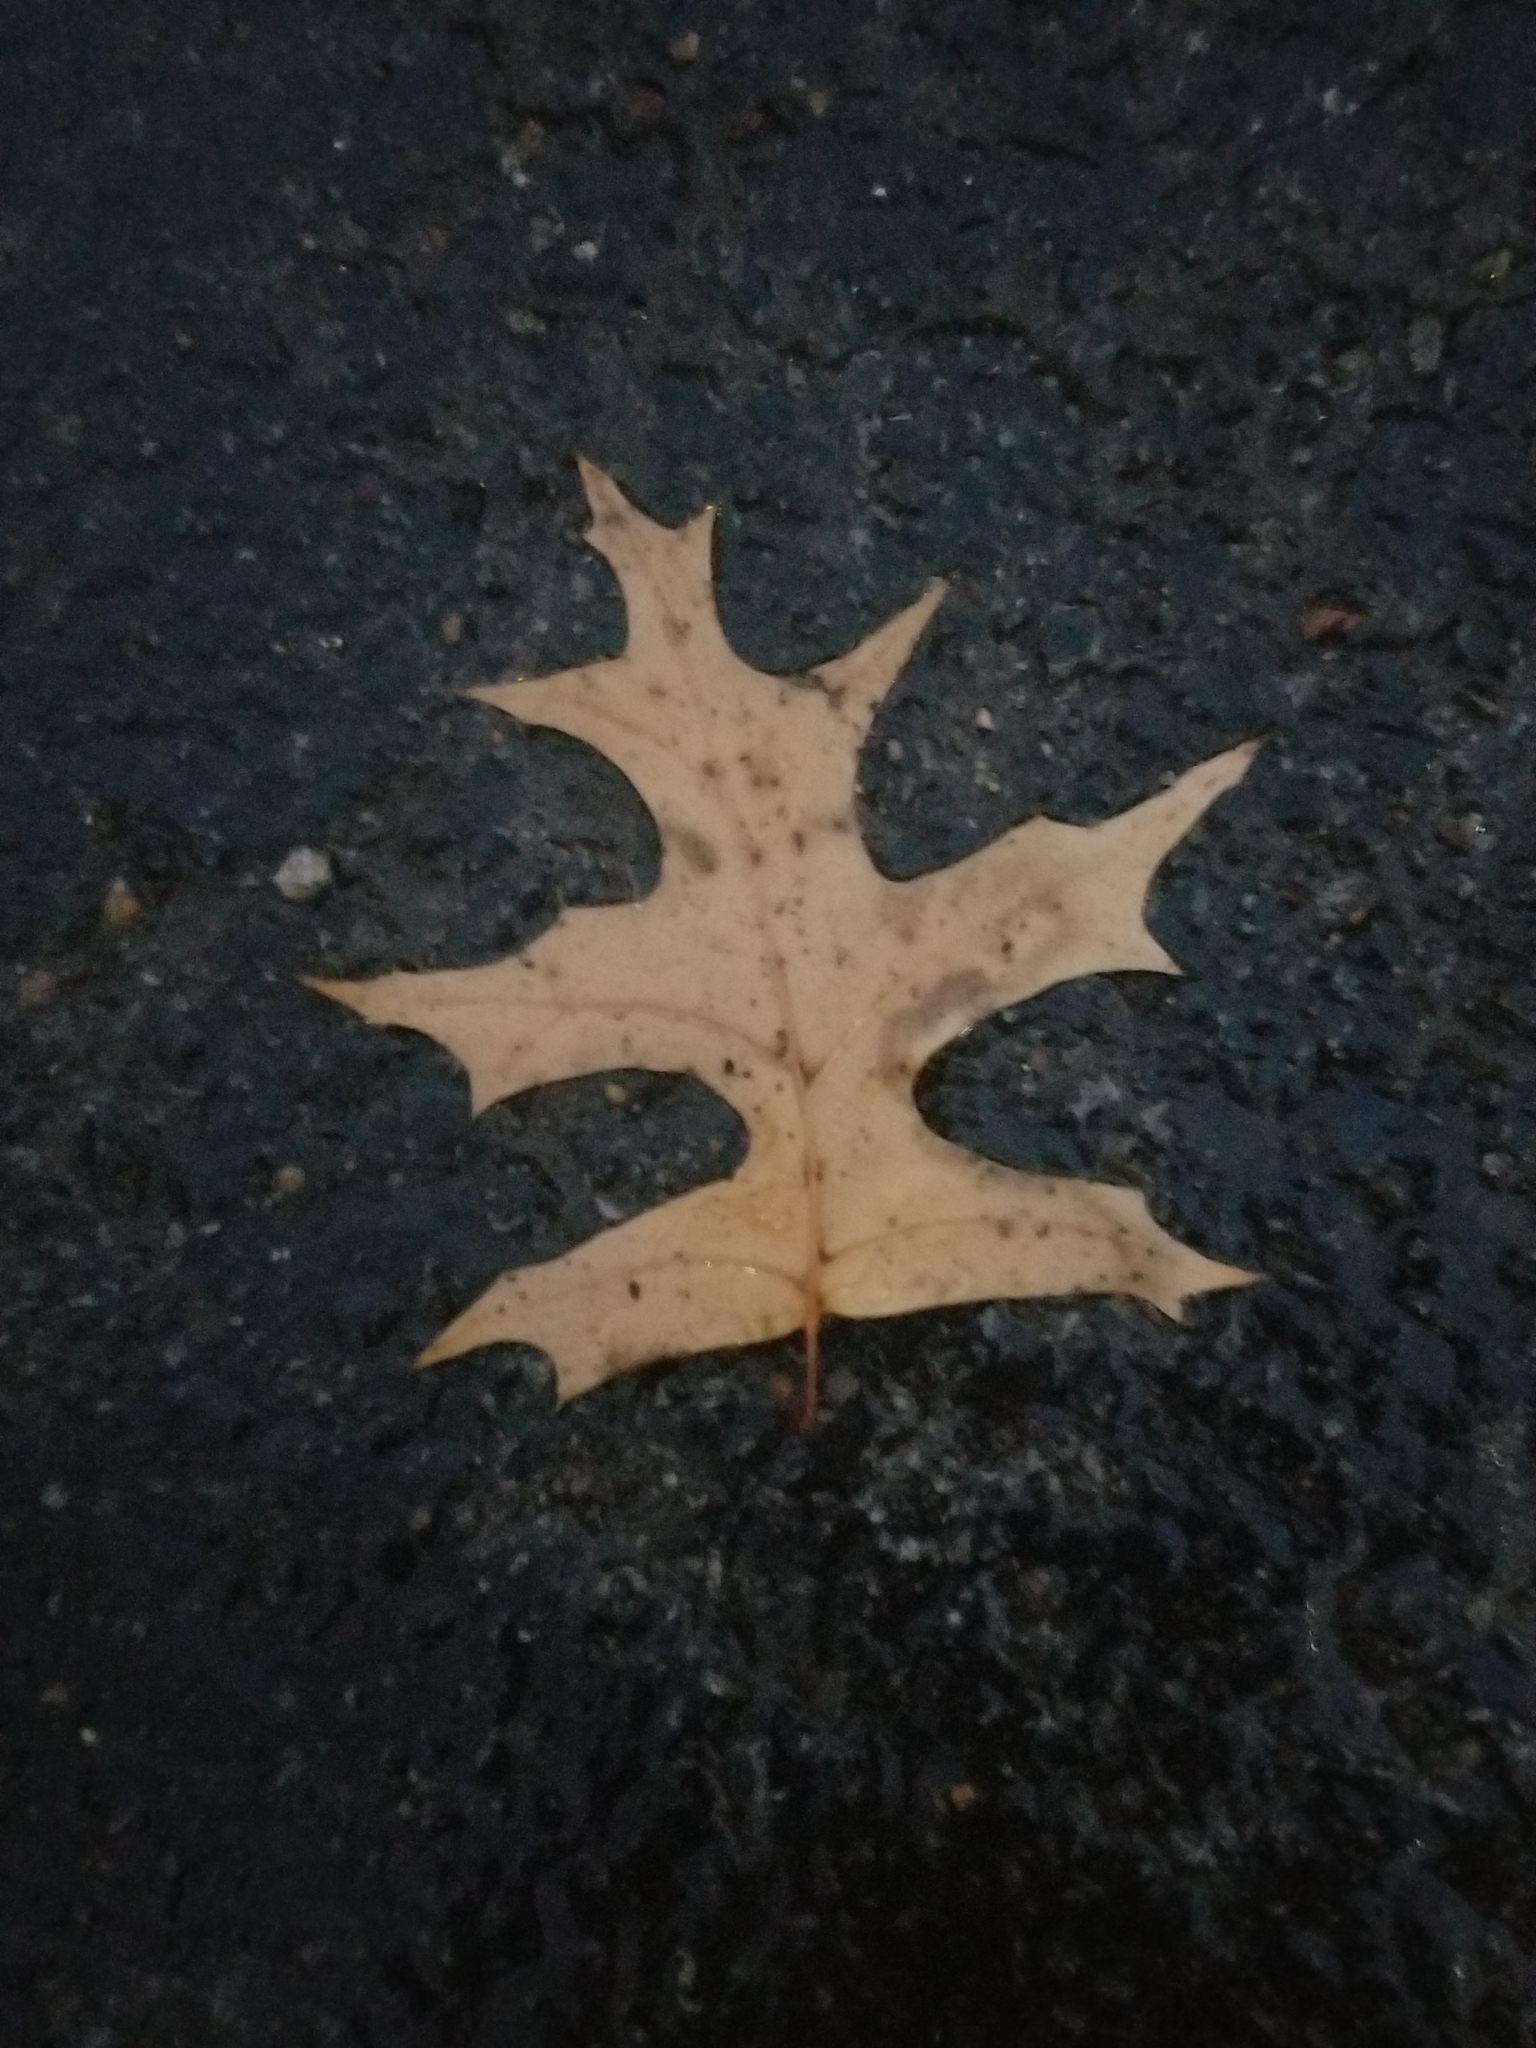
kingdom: Plantae
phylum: Tracheophyta
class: Magnoliopsida
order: Fagales
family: Fagaceae
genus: Quercus
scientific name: Quercus palustris
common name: Pin oak
